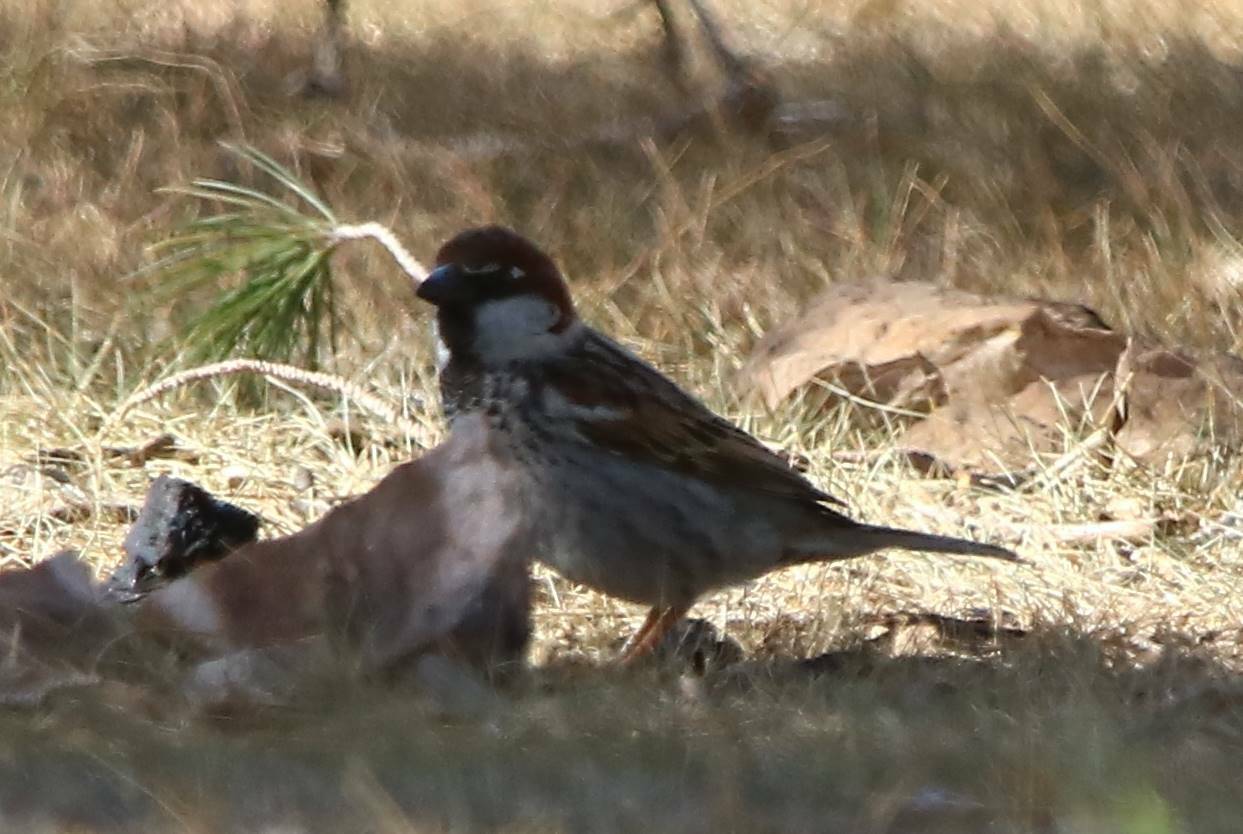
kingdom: Animalia
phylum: Chordata
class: Aves
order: Passeriformes
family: Passeridae
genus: Passer
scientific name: Passer hispaniolensis
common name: Spanish sparrow
